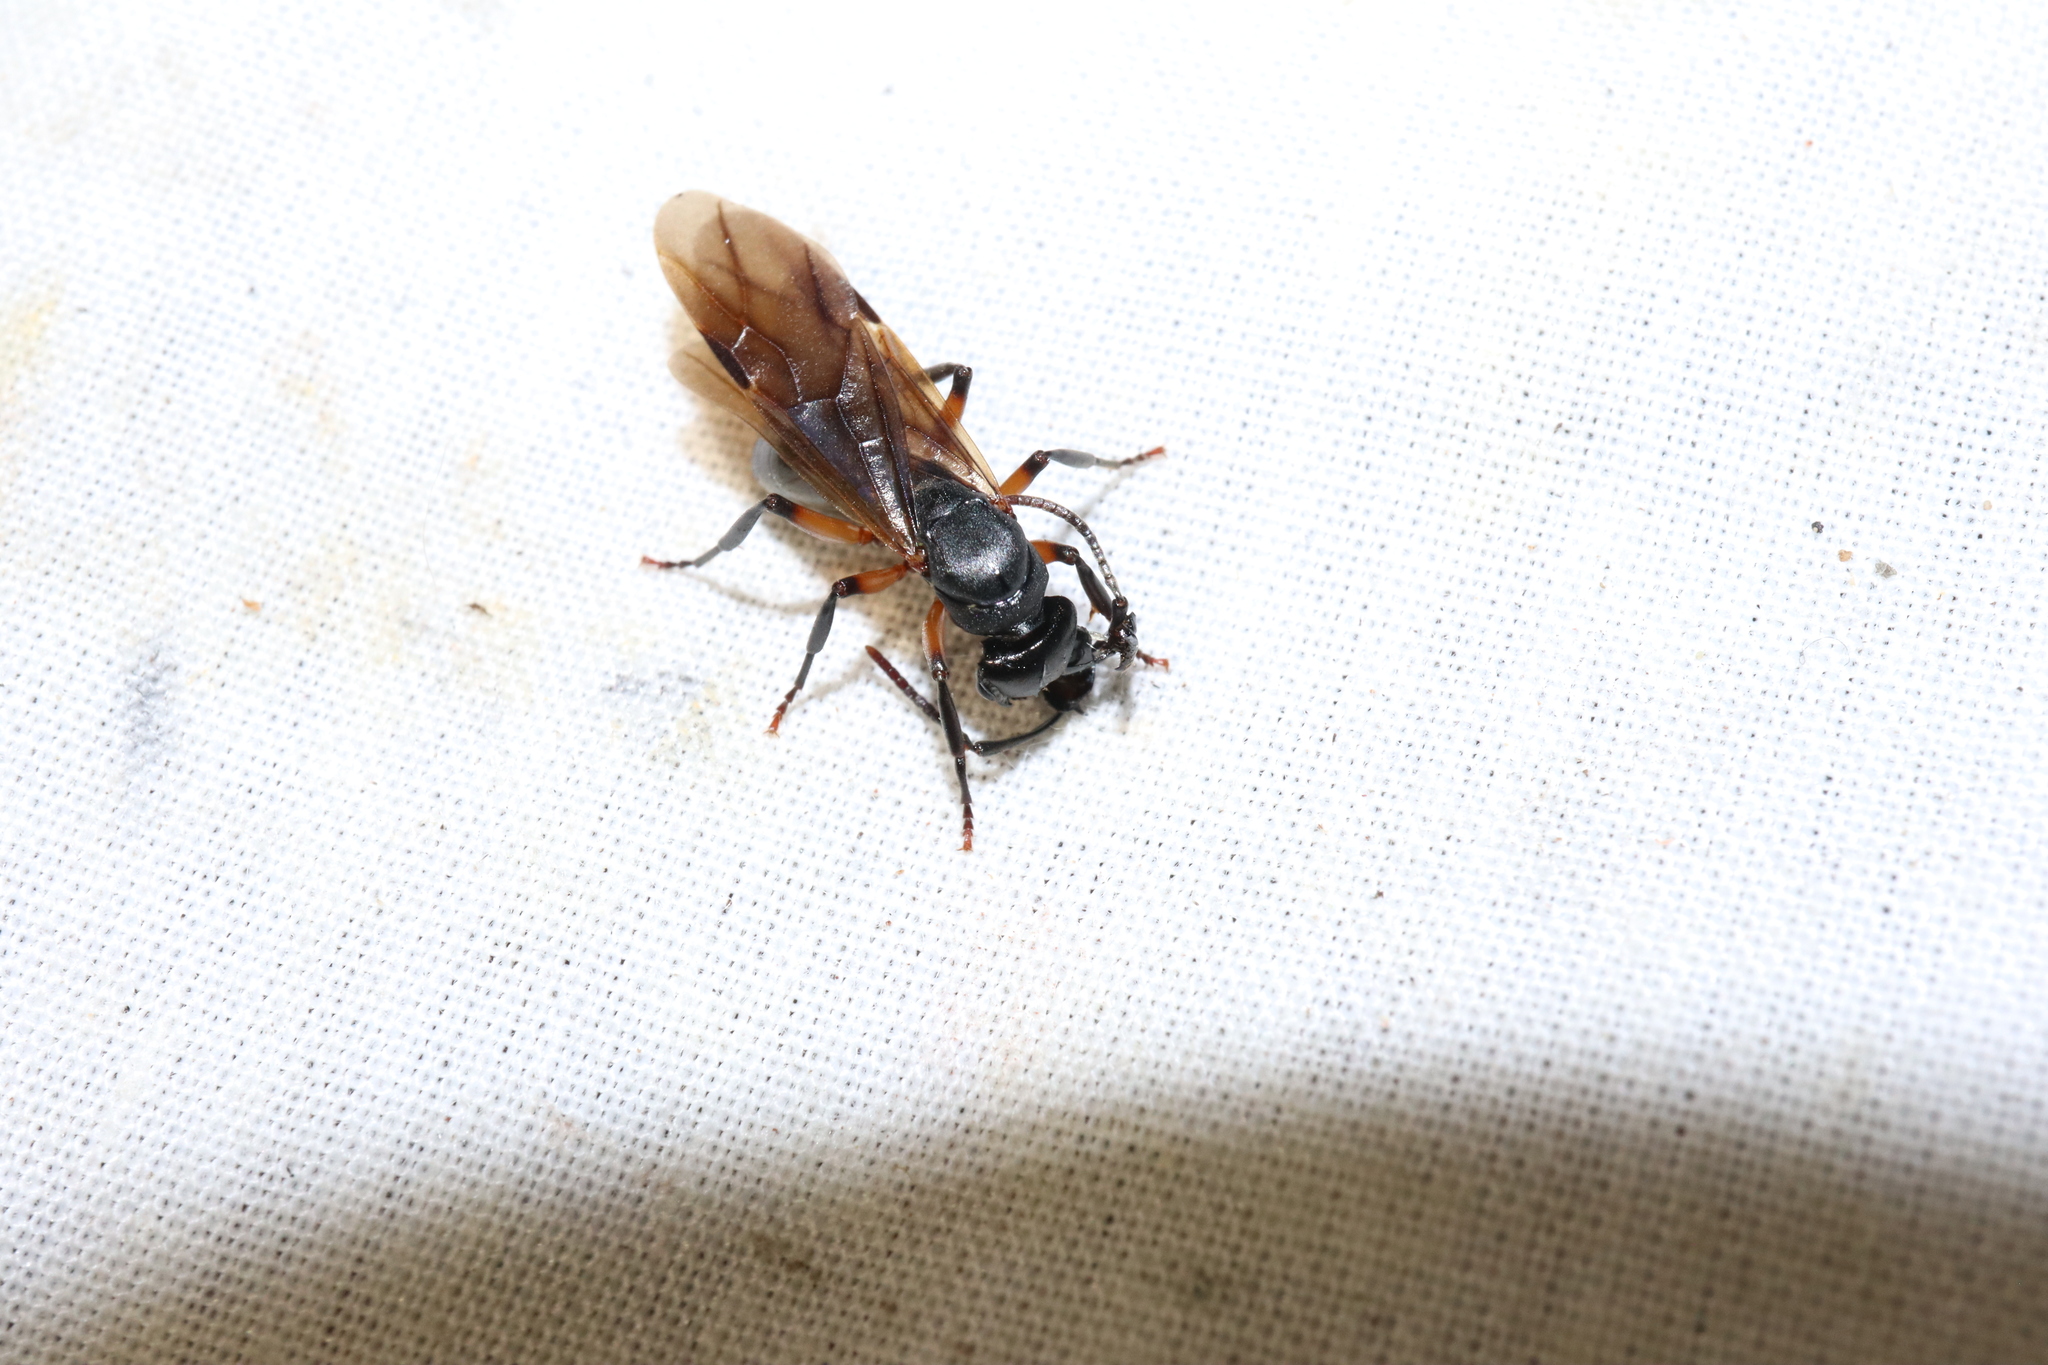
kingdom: Animalia
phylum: Arthropoda
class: Insecta
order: Hymenoptera
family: Formicidae
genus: Polyrhachis
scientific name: Polyrhachis femorata
